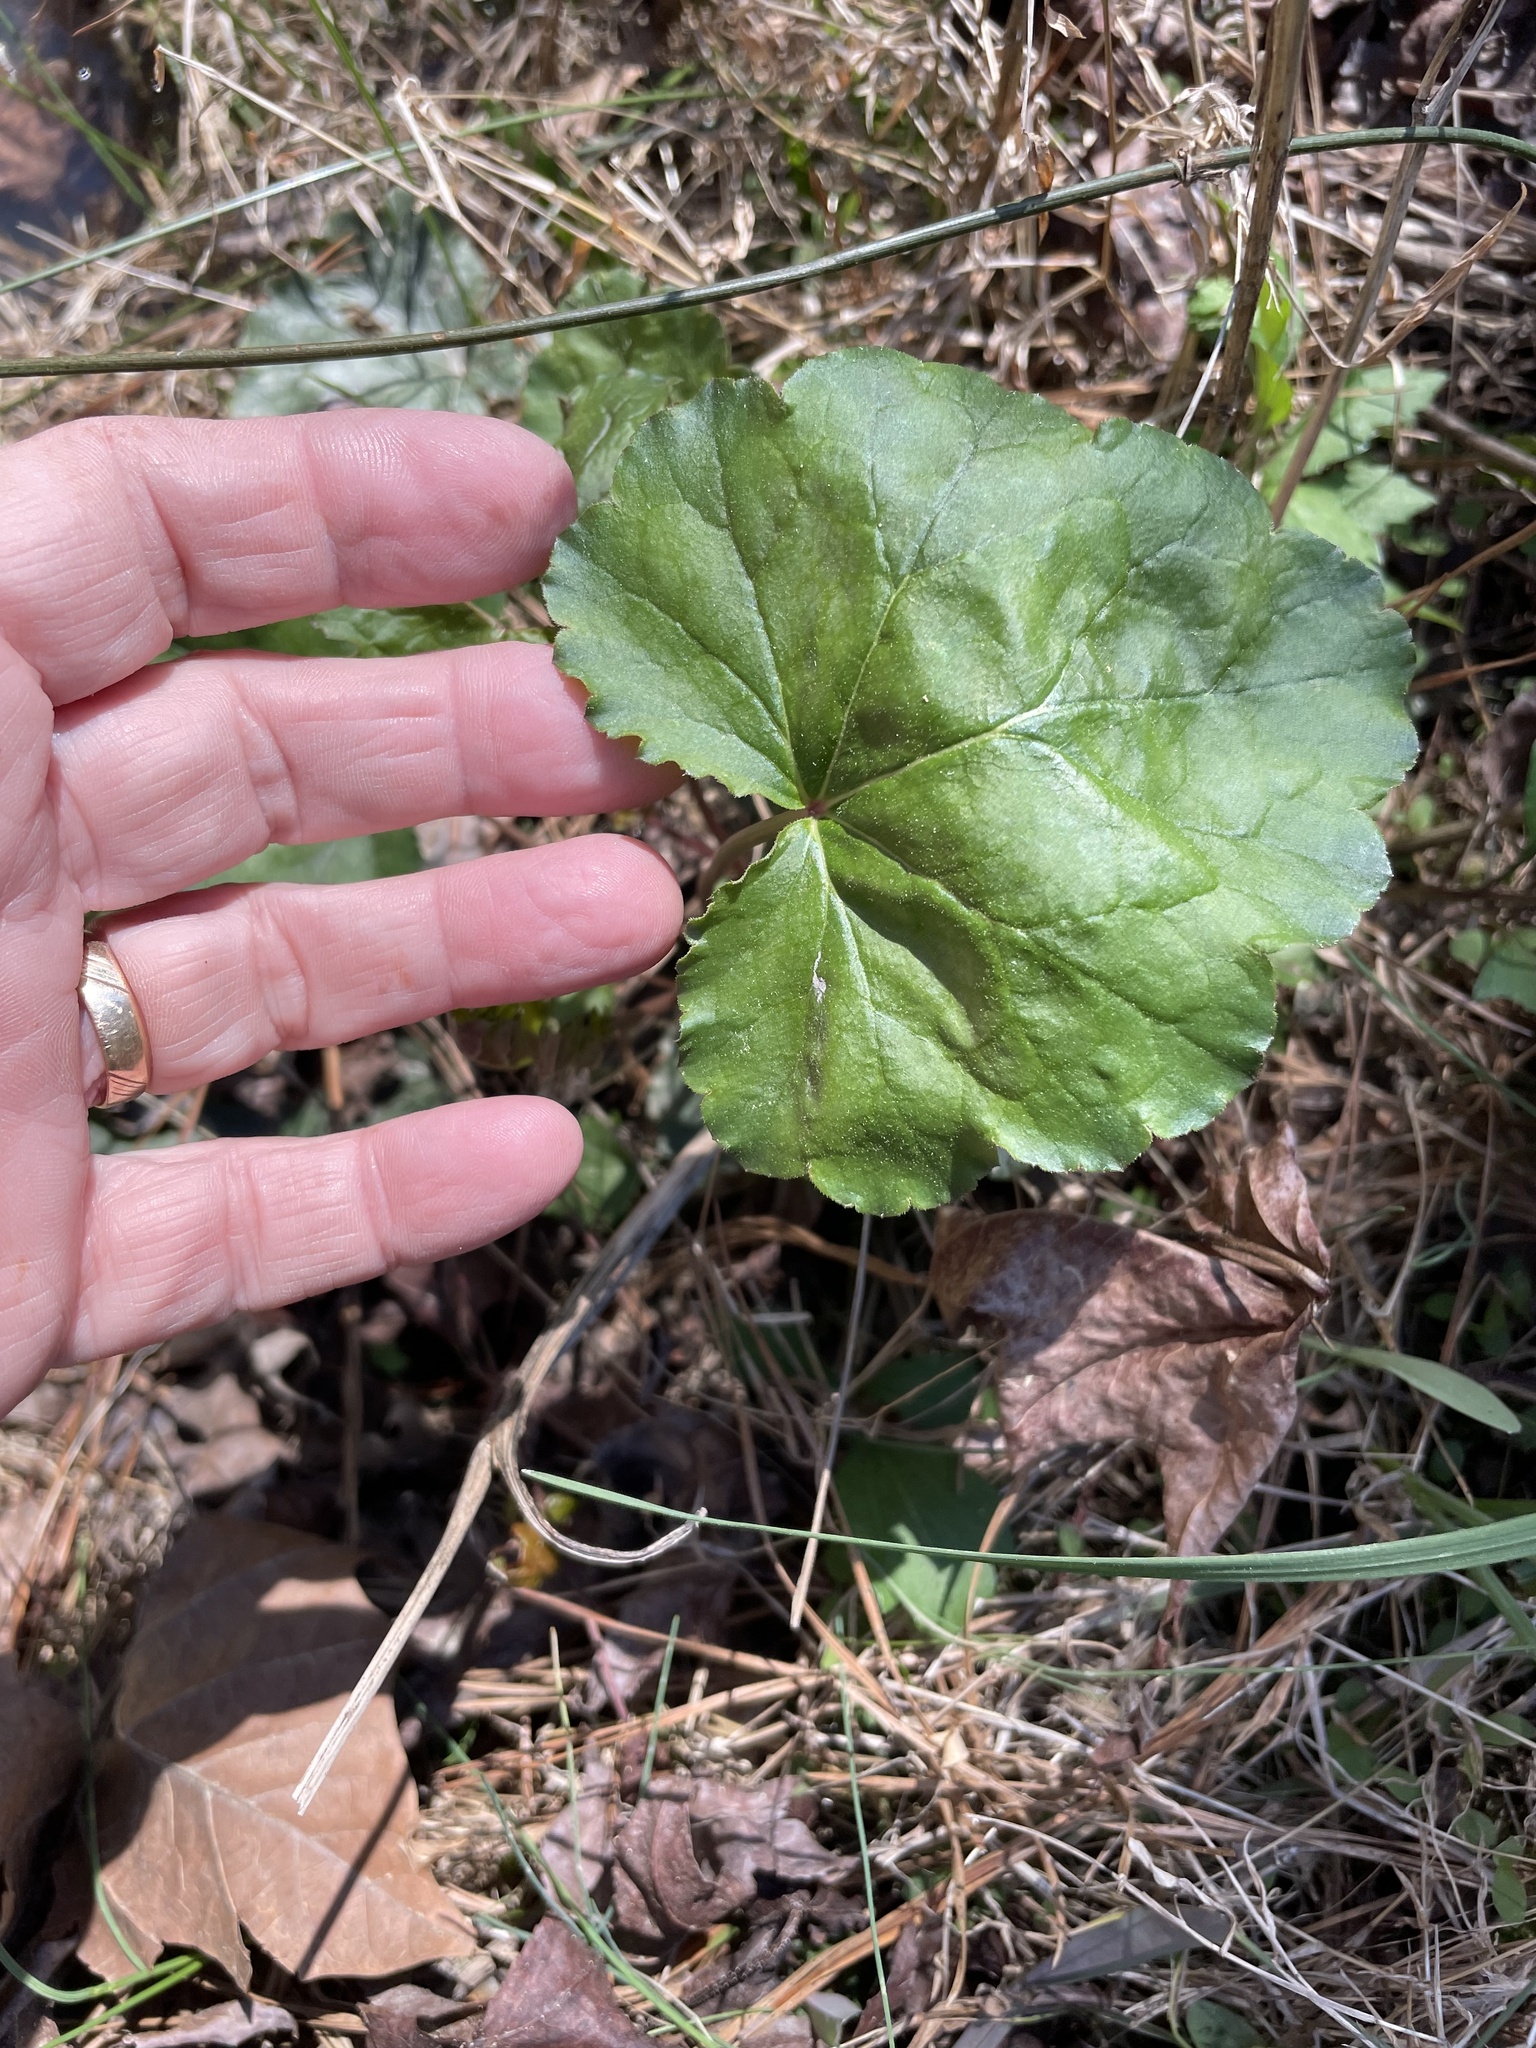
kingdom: Plantae
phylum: Tracheophyta
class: Magnoliopsida
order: Saxifragales
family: Saxifragaceae
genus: Heuchera
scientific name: Heuchera caroliniana
